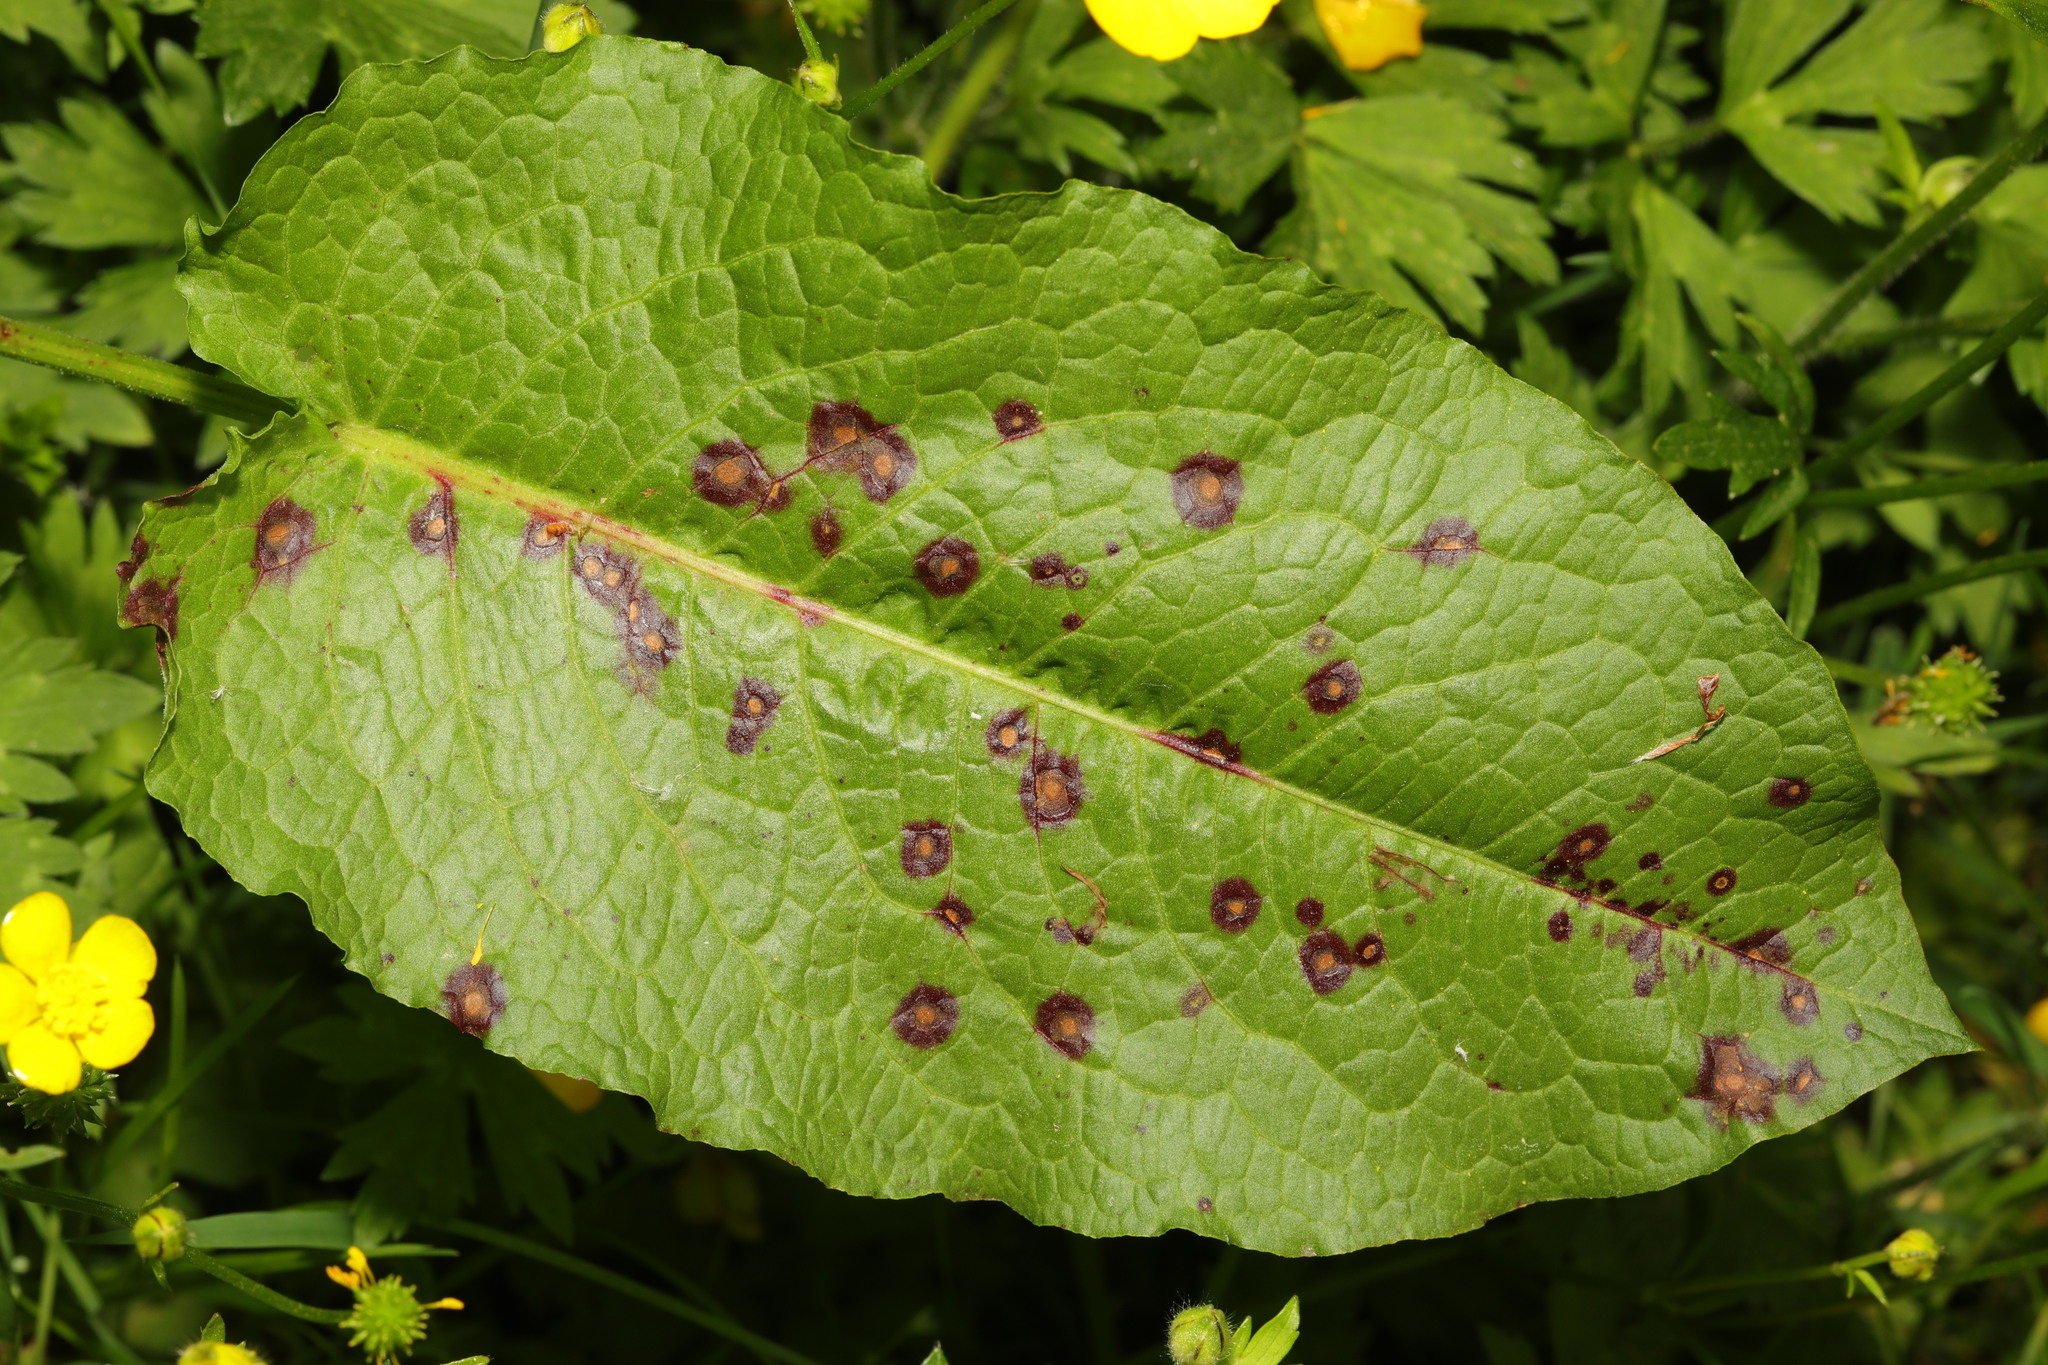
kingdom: Plantae
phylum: Tracheophyta
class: Magnoliopsida
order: Caryophyllales
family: Polygonaceae
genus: Rumex
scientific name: Rumex obtusifolius
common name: Bitter dock
